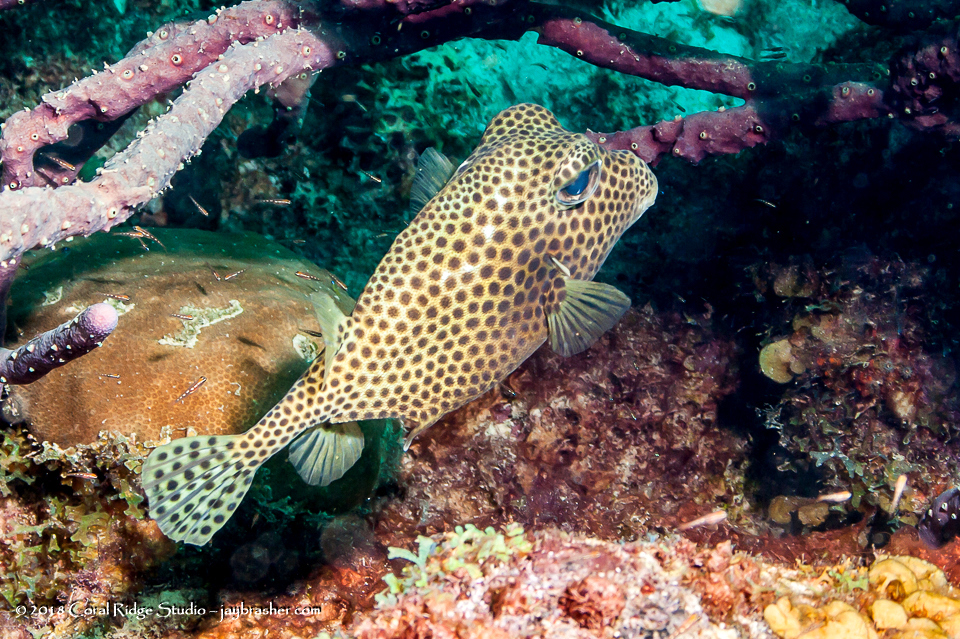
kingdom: Animalia
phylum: Chordata
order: Tetraodontiformes
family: Ostraciidae
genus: Lactophrys
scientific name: Lactophrys bicaudalis
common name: Spotted trunkfish
